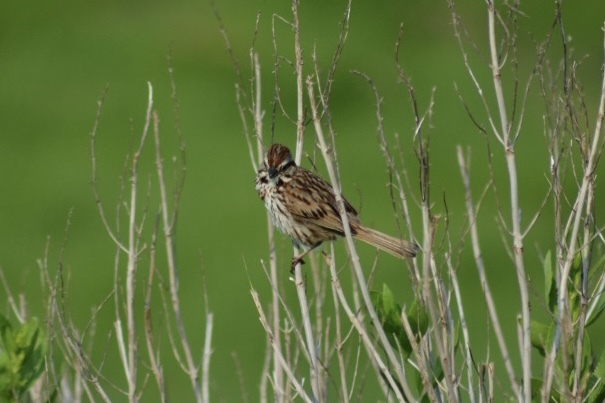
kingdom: Animalia
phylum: Chordata
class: Aves
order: Passeriformes
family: Passerellidae
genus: Melospiza
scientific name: Melospiza melodia
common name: Song sparrow
